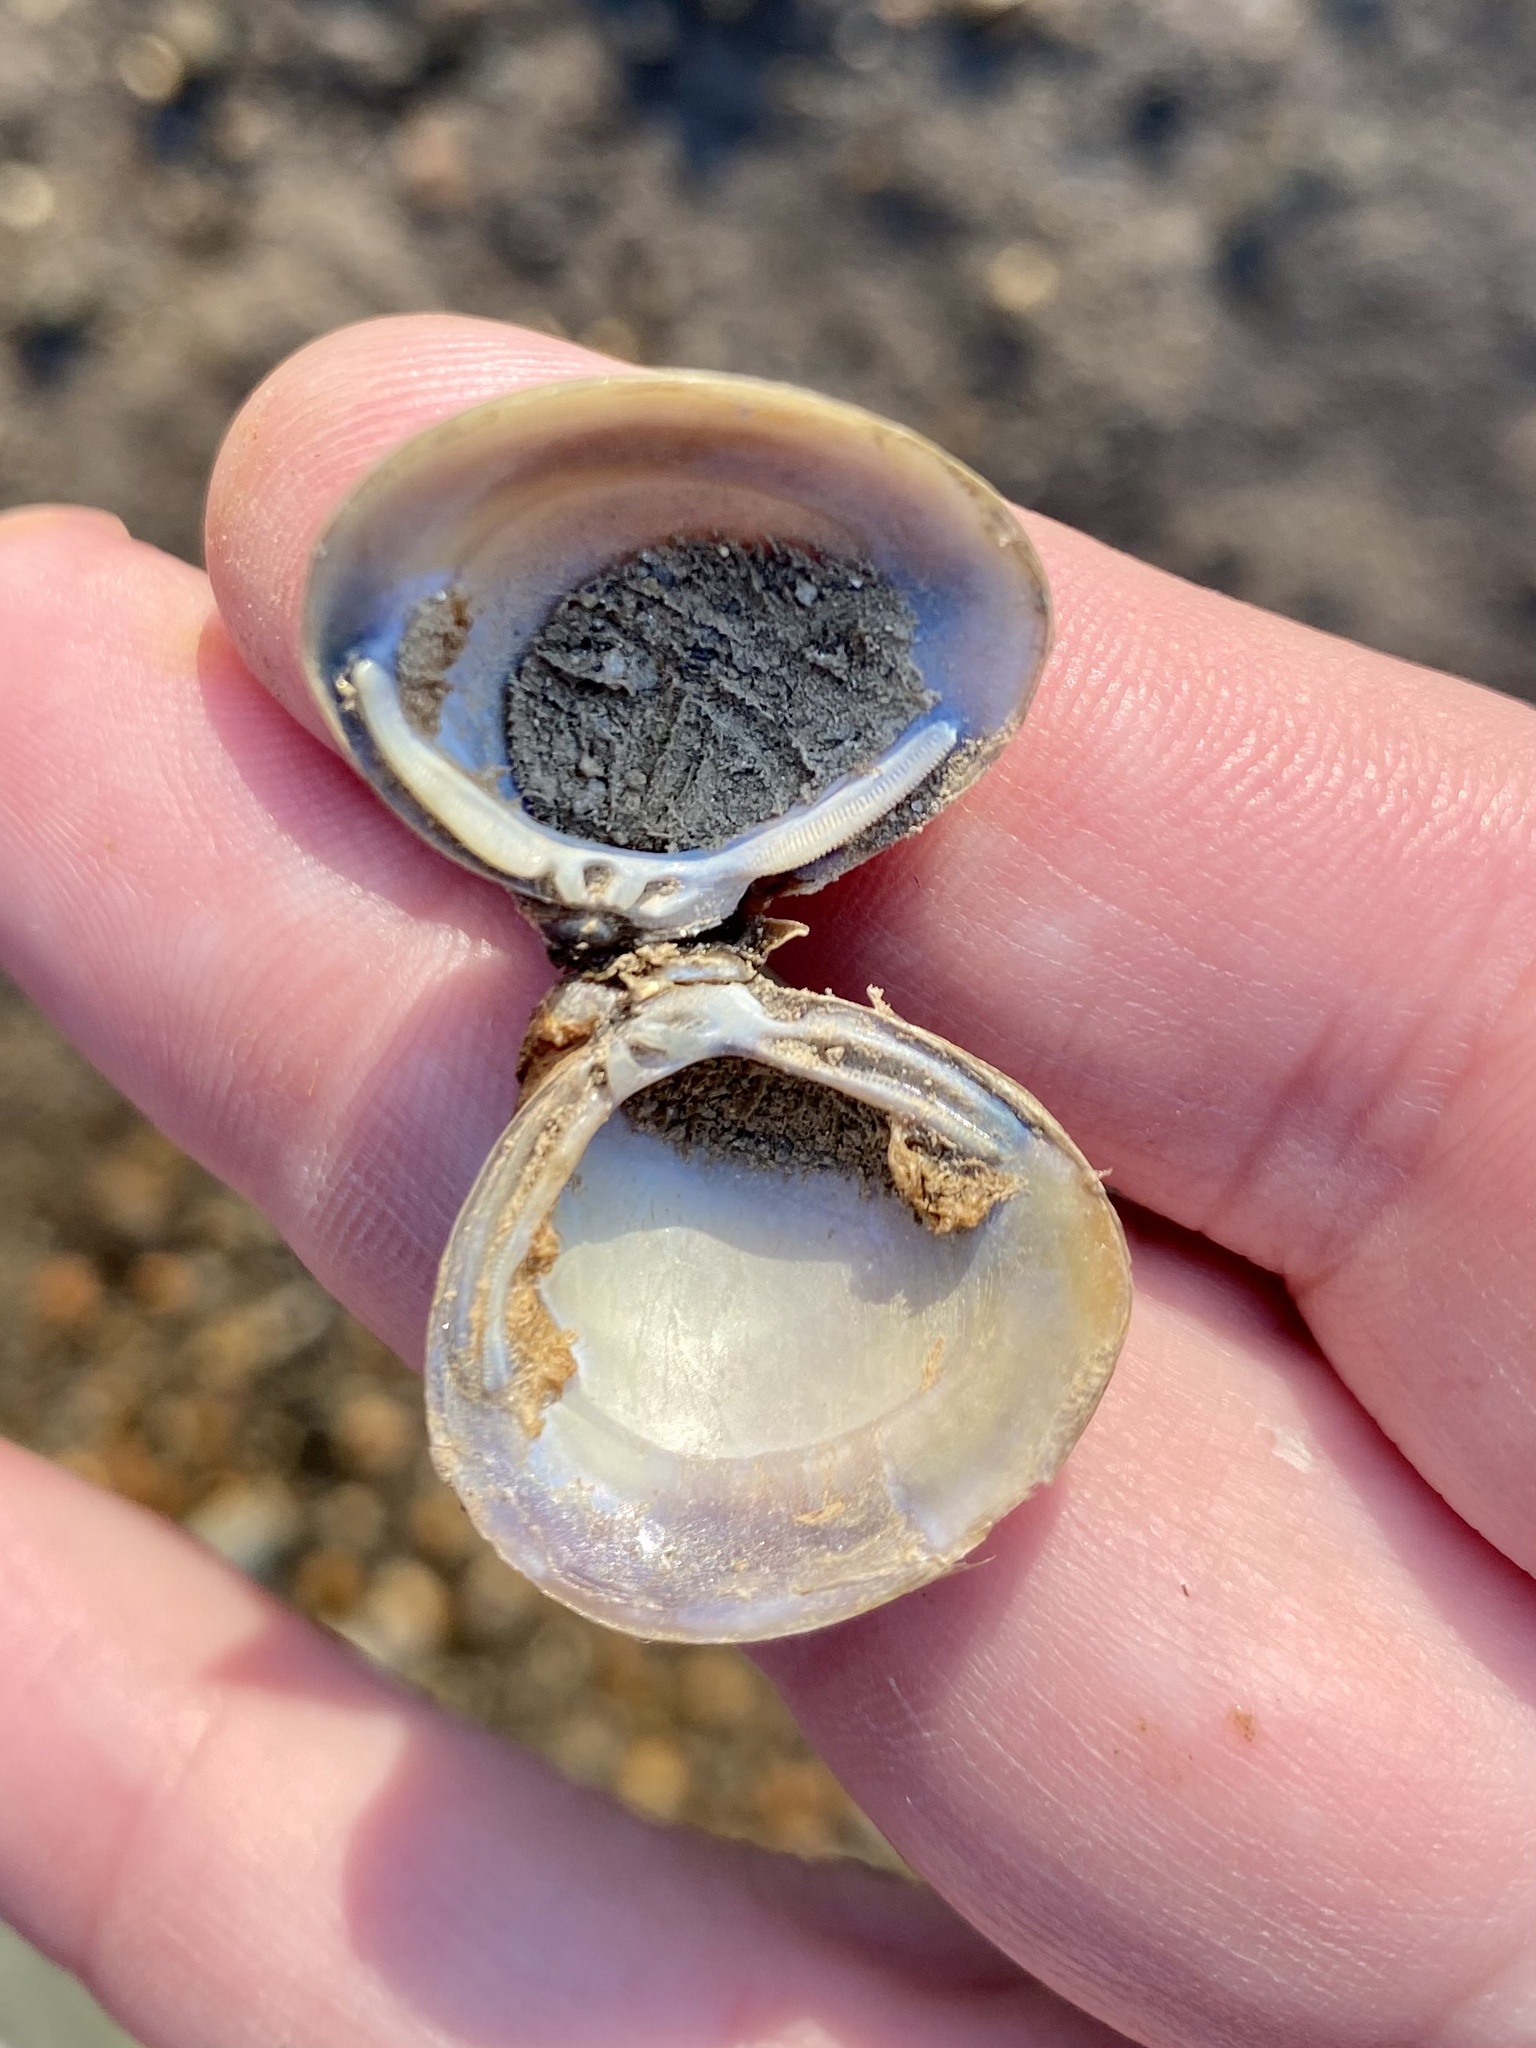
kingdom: Animalia
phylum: Mollusca
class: Bivalvia
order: Venerida
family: Cyrenidae
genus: Corbicula
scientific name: Corbicula fluminea
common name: Asian clam
